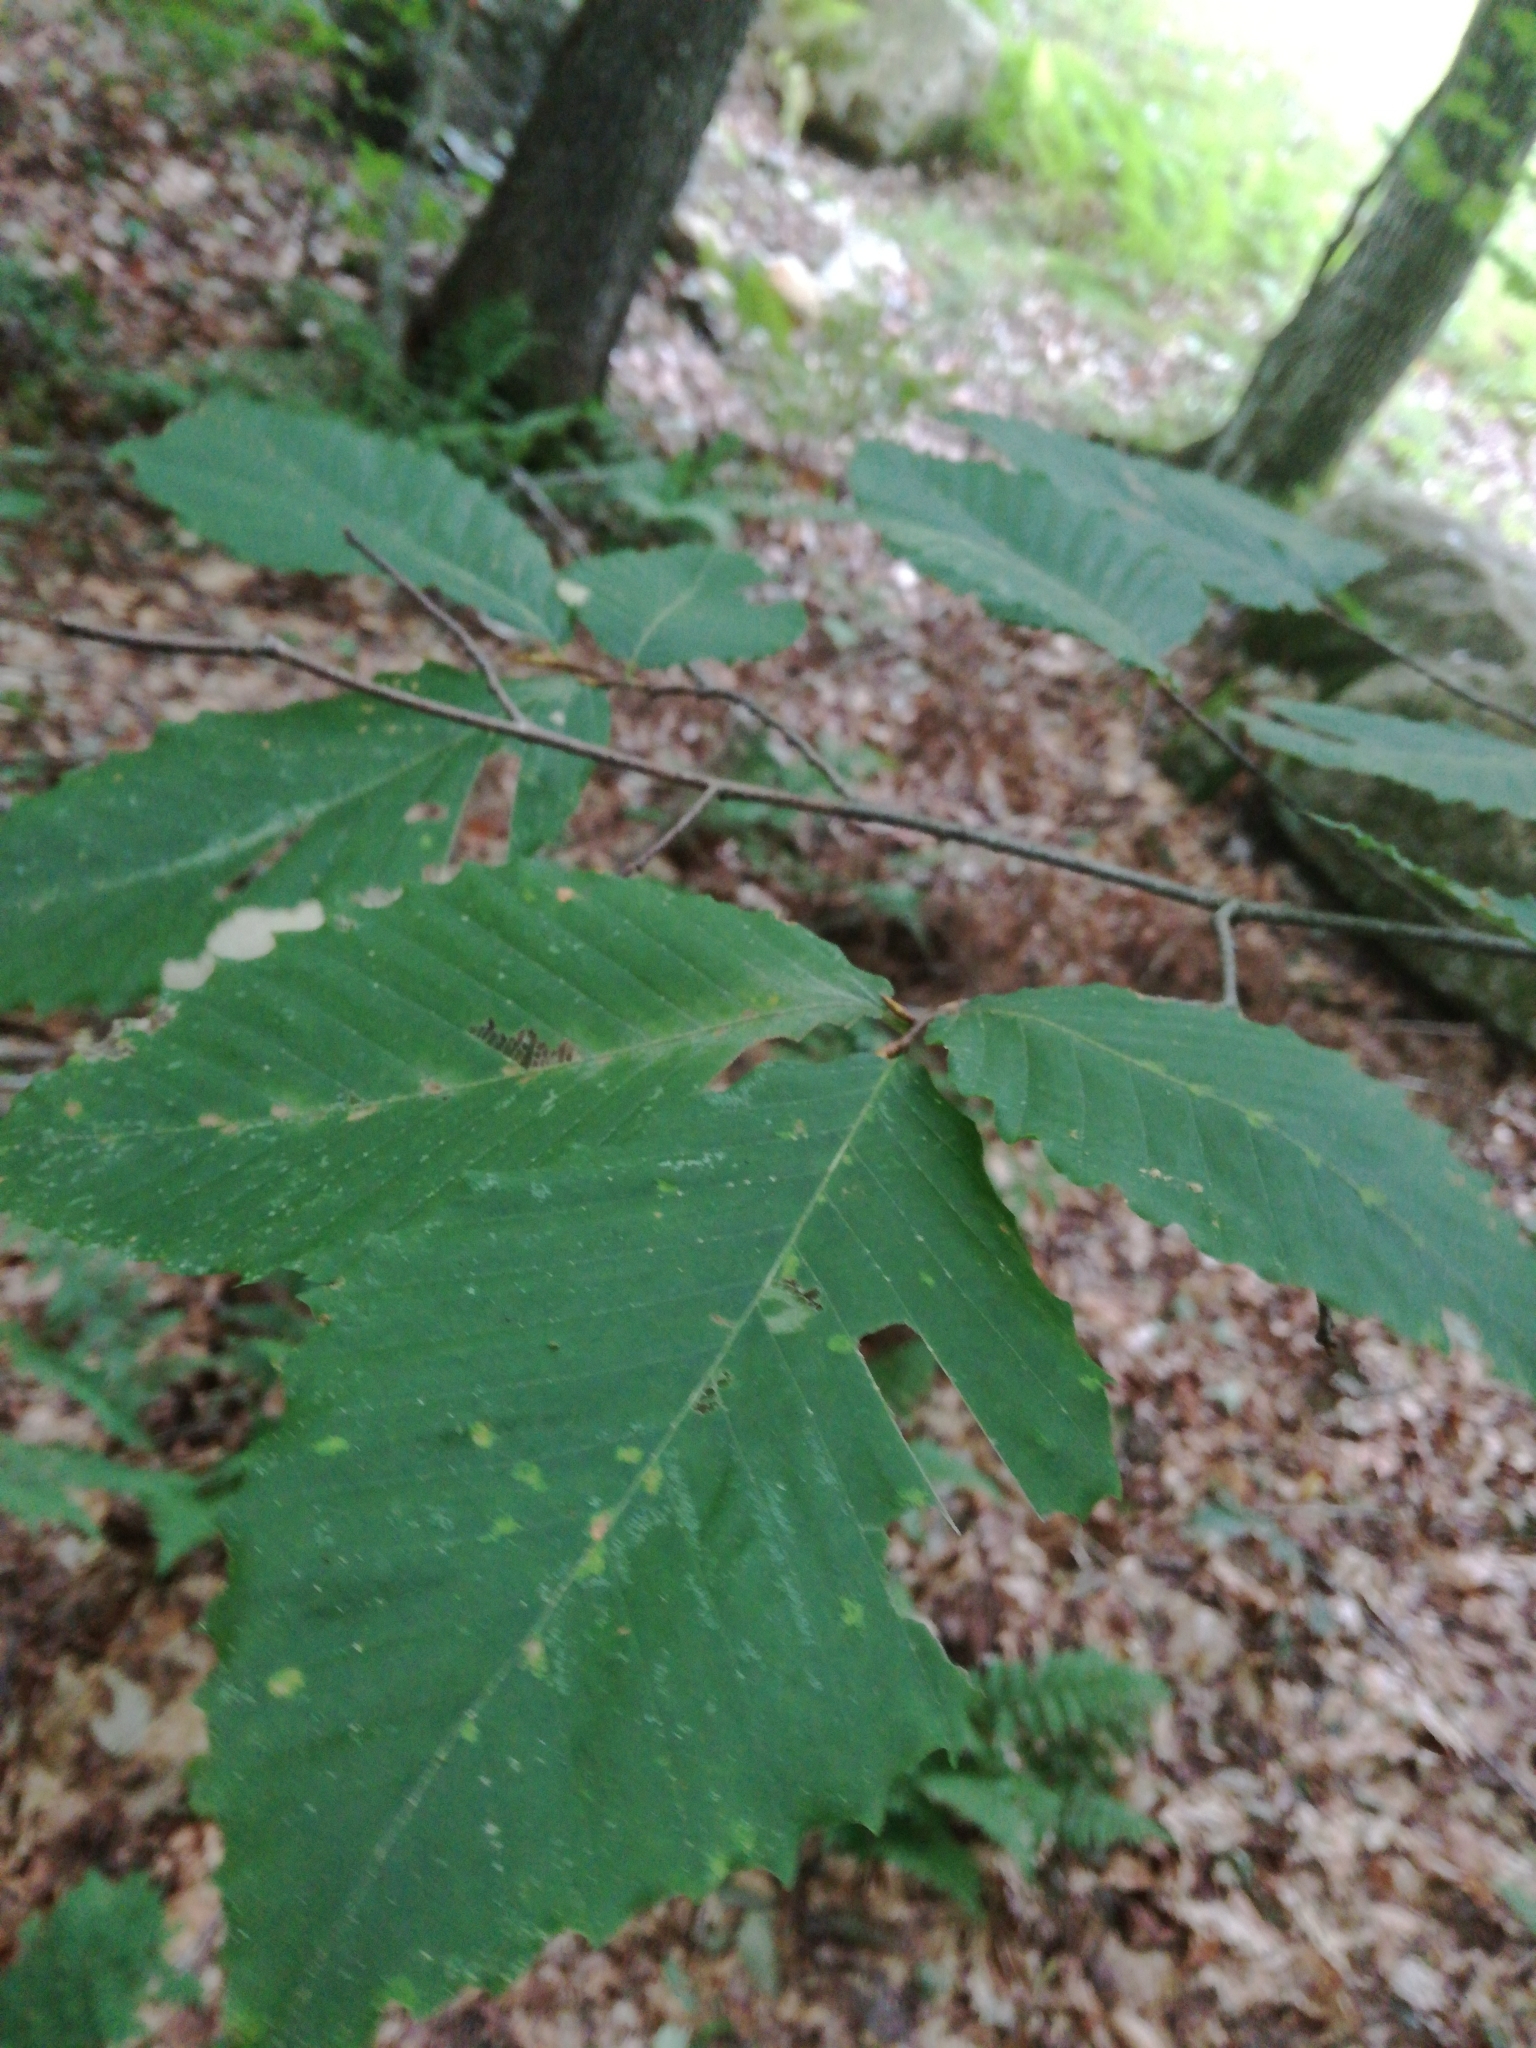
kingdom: Plantae
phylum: Tracheophyta
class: Magnoliopsida
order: Fagales
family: Fagaceae
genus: Fagus
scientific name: Fagus grandifolia
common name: American beech
